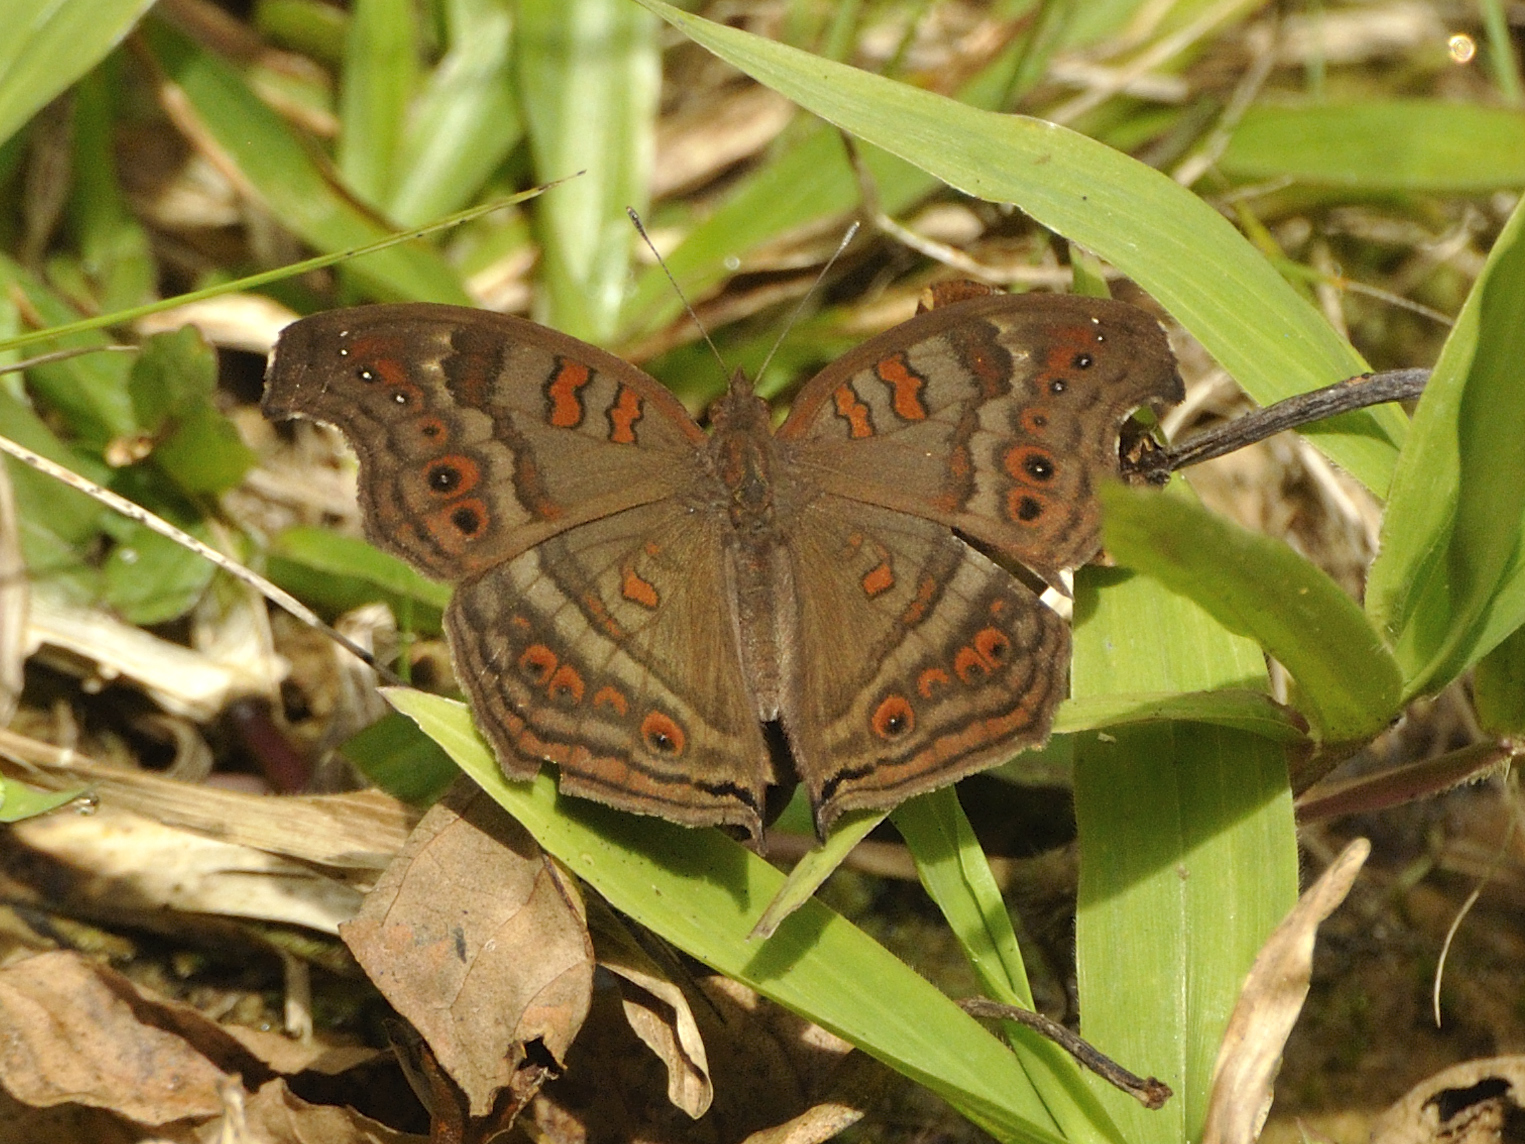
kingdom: Animalia
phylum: Arthropoda
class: Insecta
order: Lepidoptera
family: Nymphalidae
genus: Junonia
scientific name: Junonia goudotii
